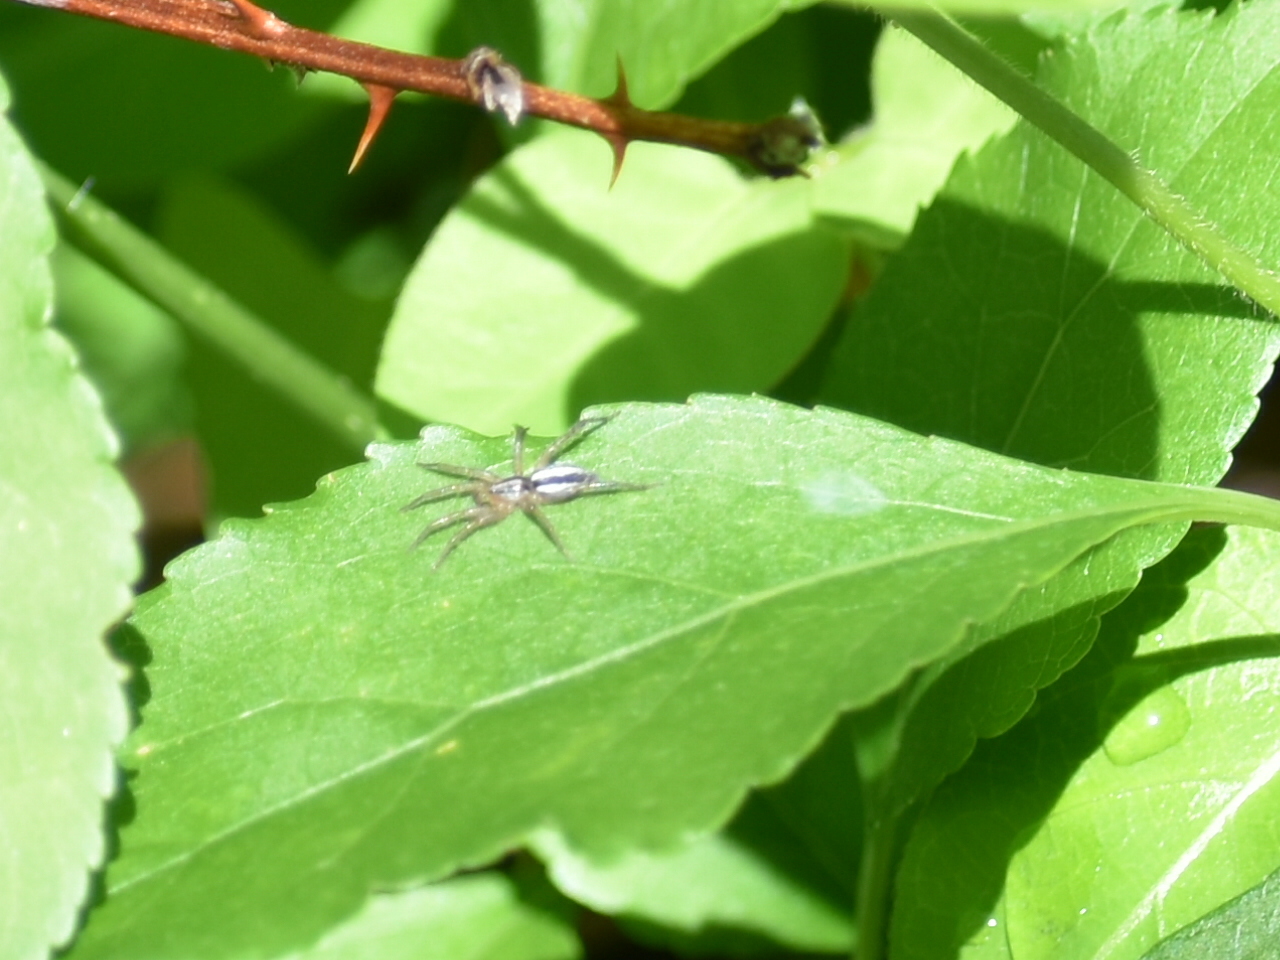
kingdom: Animalia
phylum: Arthropoda
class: Arachnida
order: Araneae
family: Gnaphosidae
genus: Cesonia
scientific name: Cesonia bilineata
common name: Two-lined stealthy ground spider
